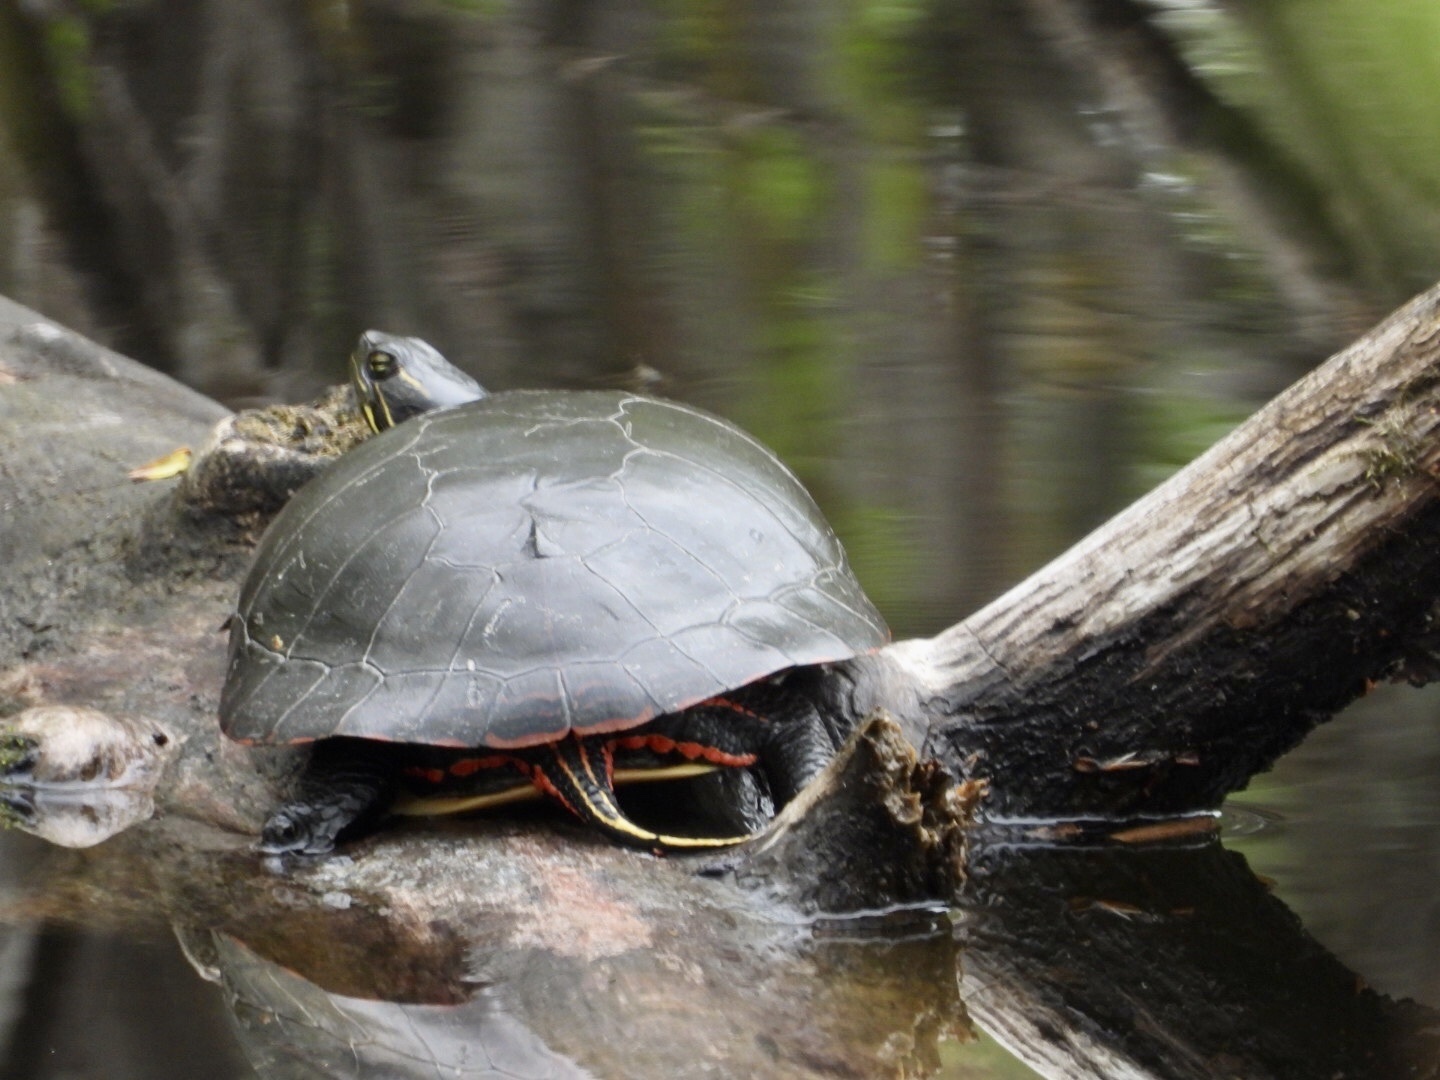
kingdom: Animalia
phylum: Chordata
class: Testudines
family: Emydidae
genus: Chrysemys
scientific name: Chrysemys picta
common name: Painted turtle
